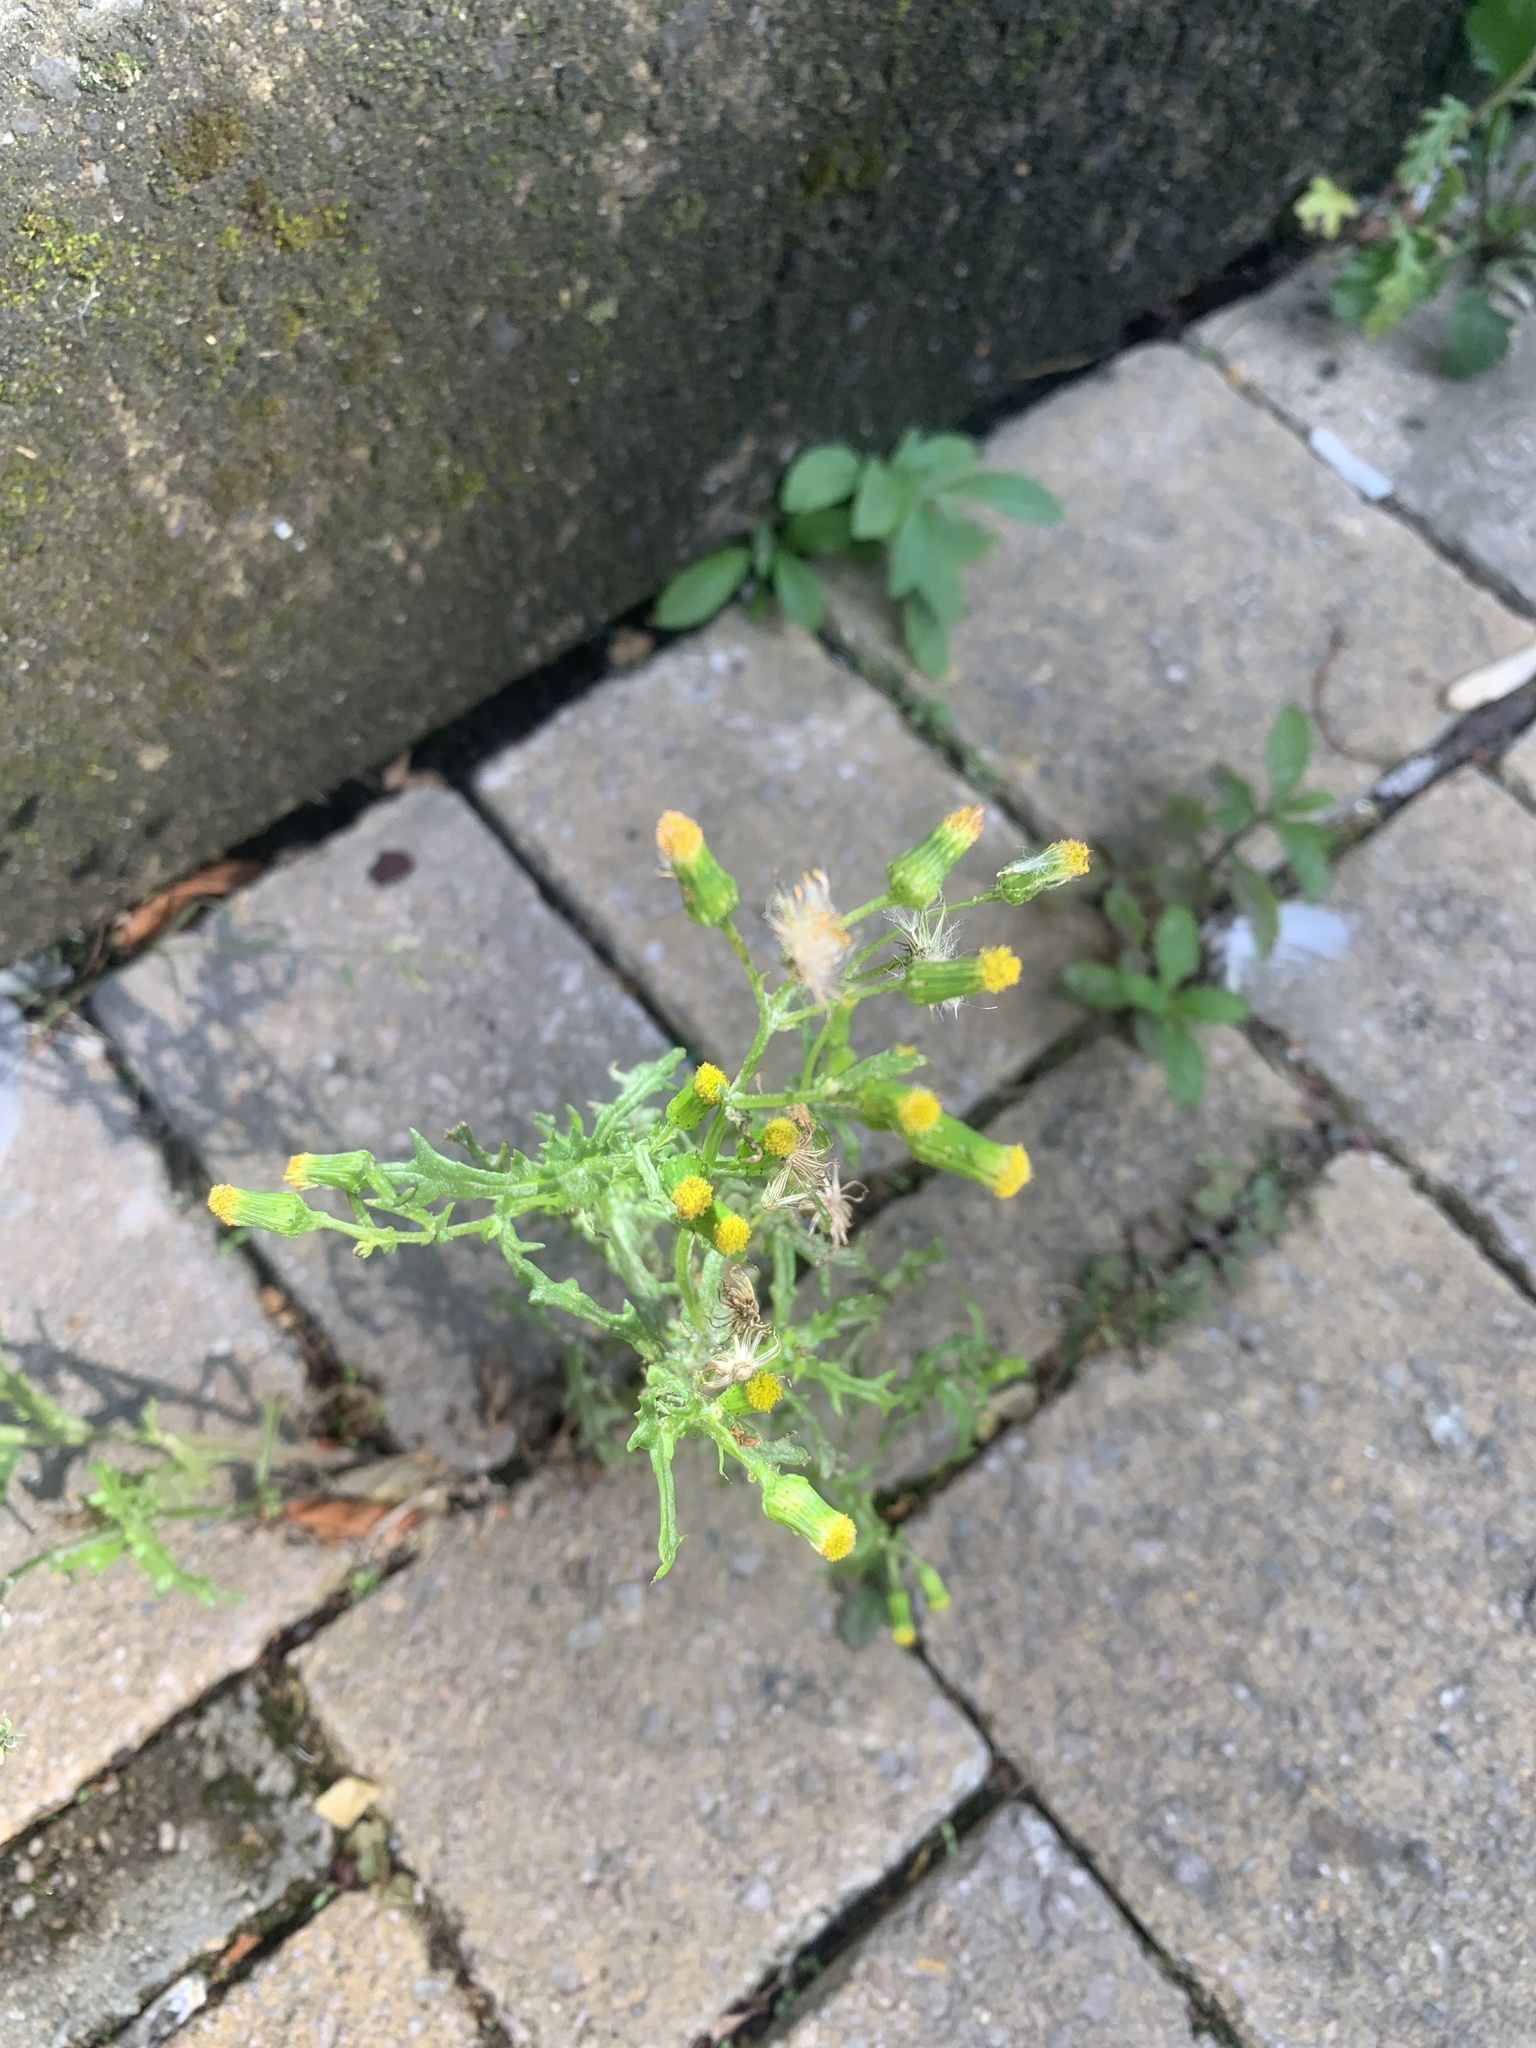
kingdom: Plantae
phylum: Tracheophyta
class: Magnoliopsida
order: Asterales
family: Asteraceae
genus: Senecio
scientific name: Senecio vulgaris
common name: Old-man-in-the-spring
